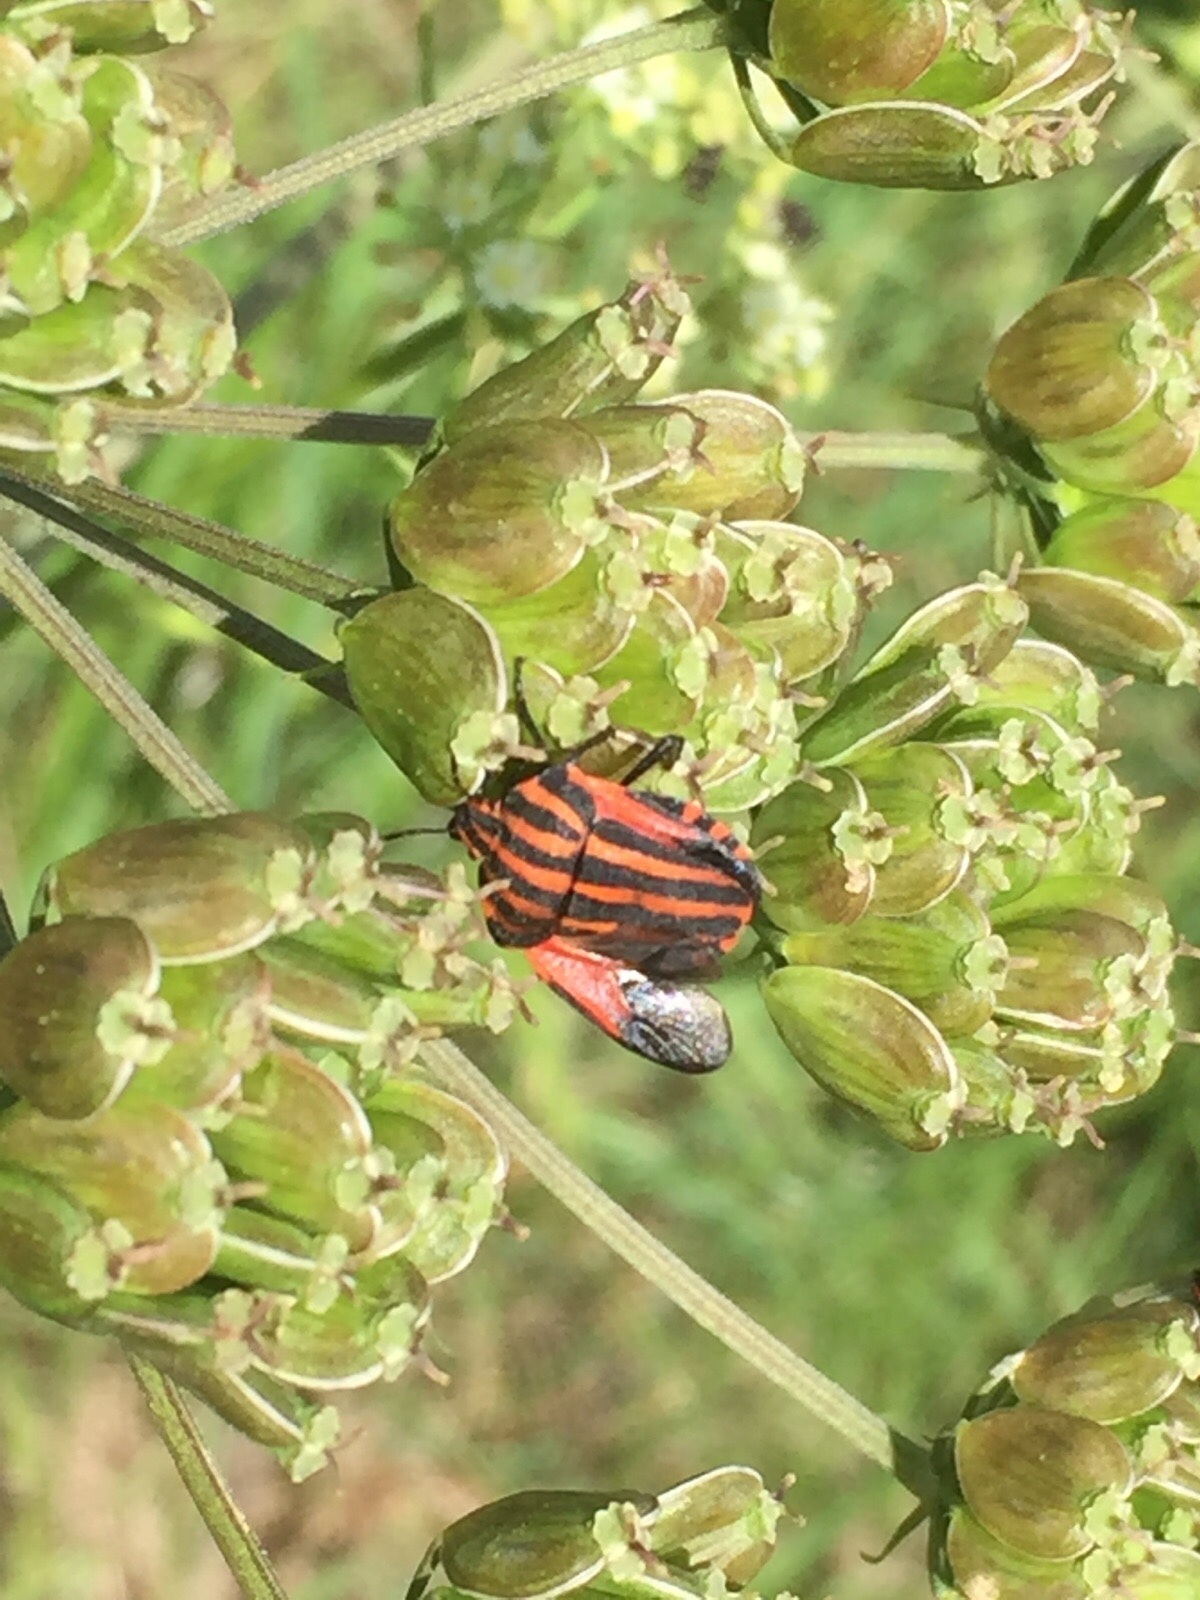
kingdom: Animalia
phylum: Arthropoda
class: Insecta
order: Hemiptera
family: Pentatomidae
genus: Graphosoma
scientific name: Graphosoma italicum
